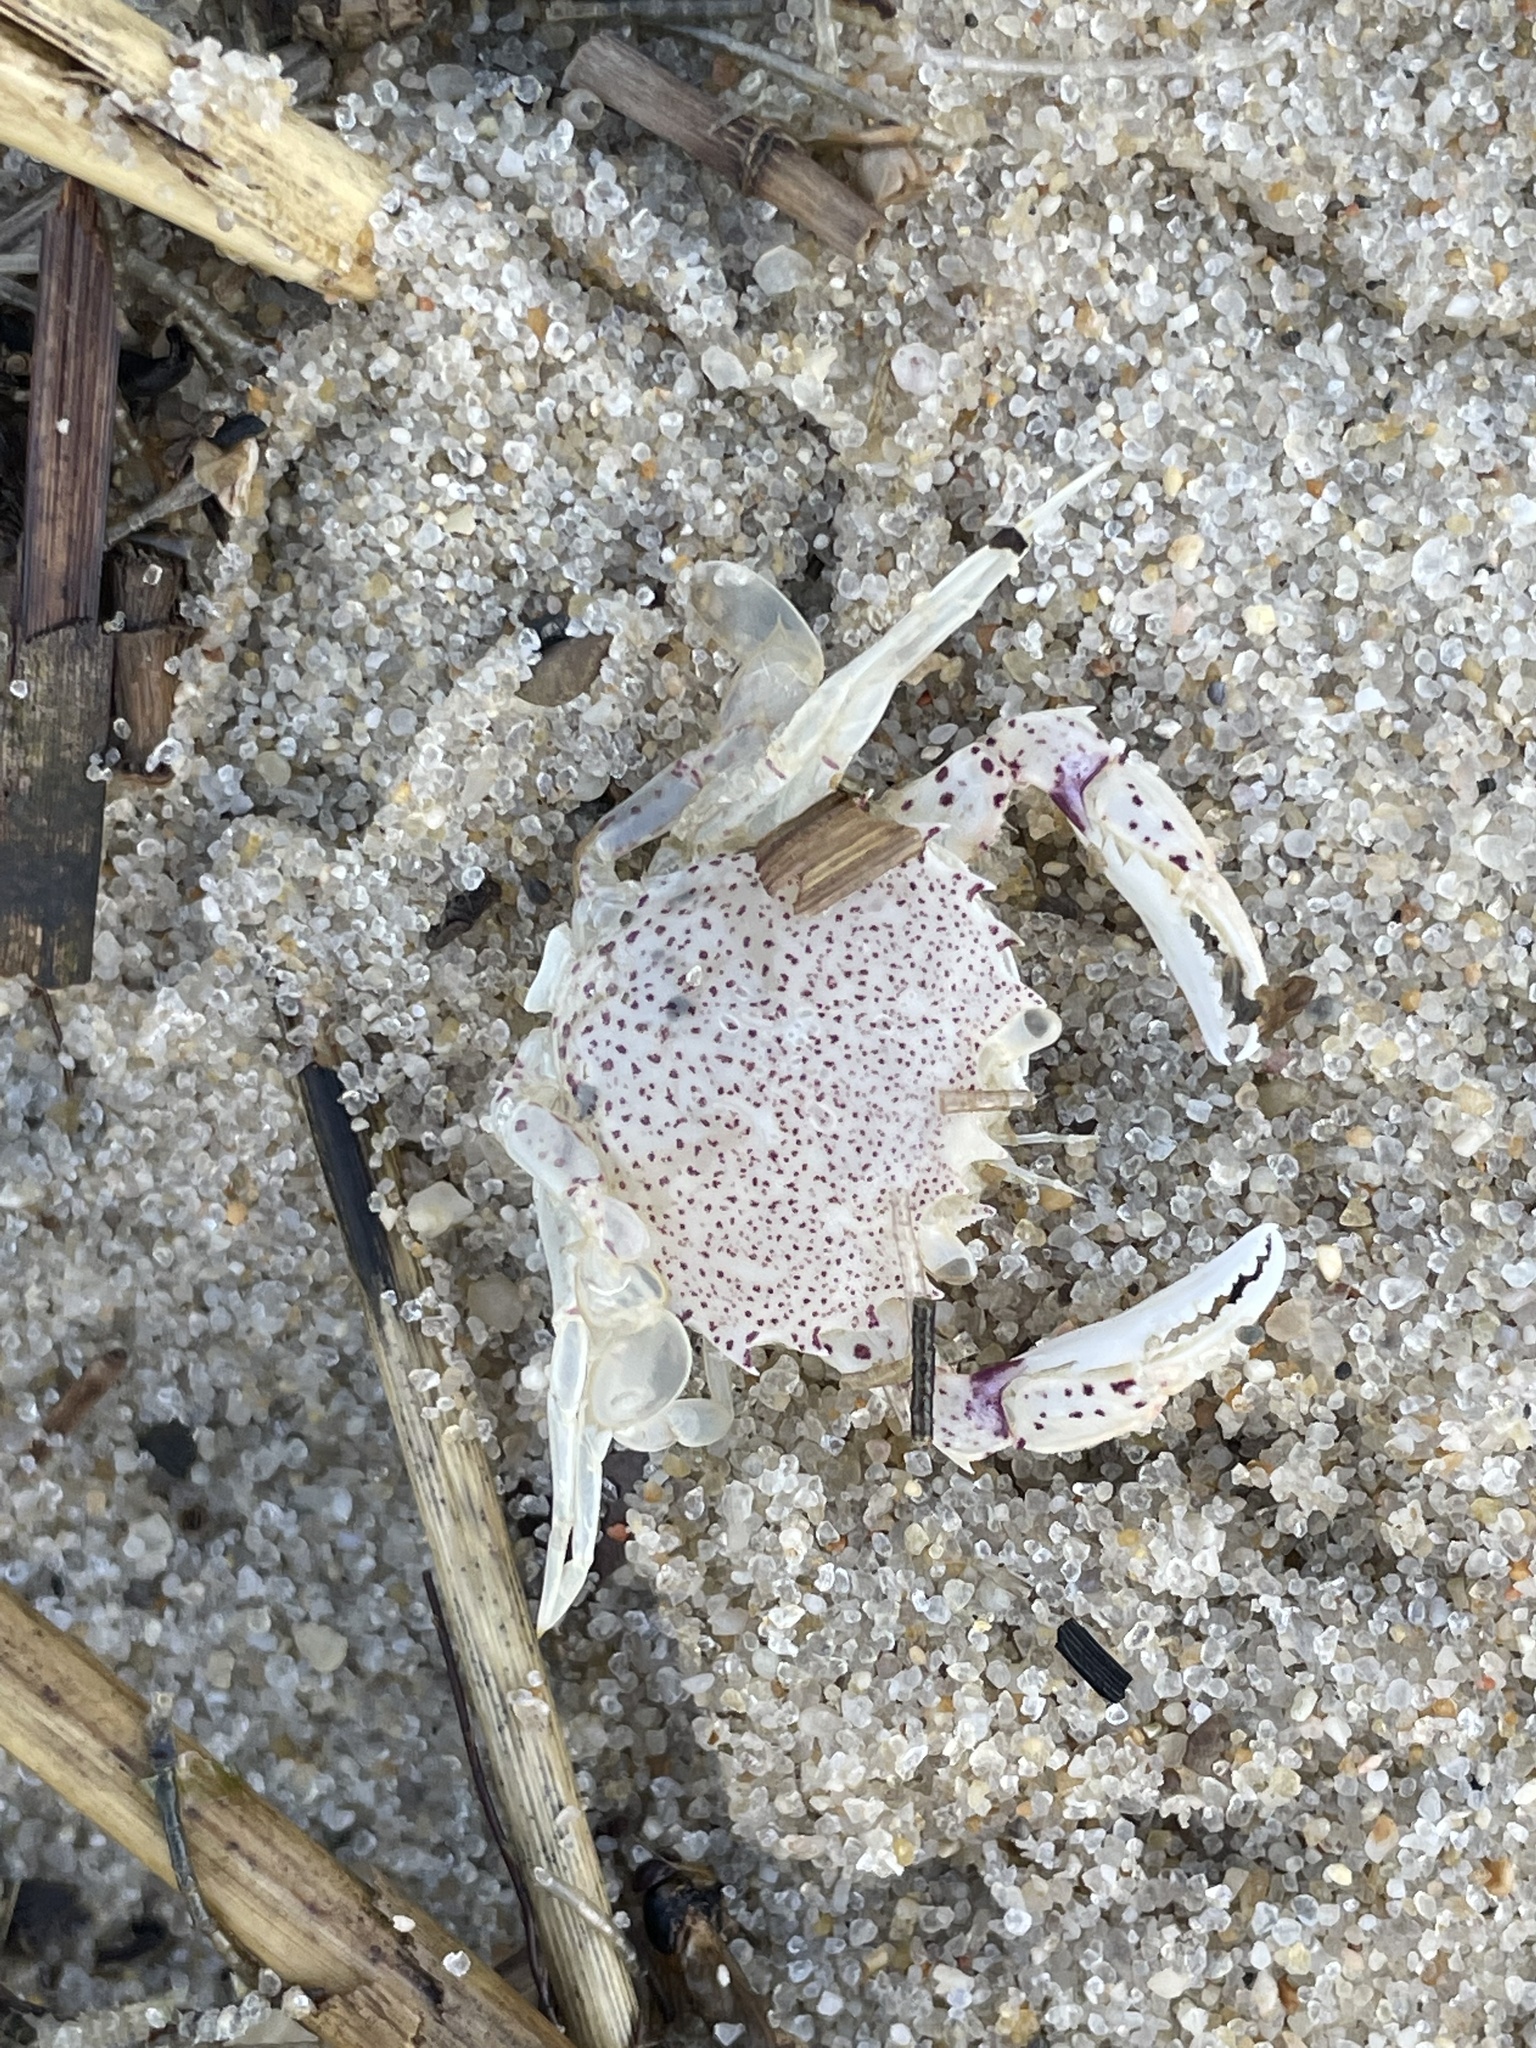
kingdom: Animalia
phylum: Arthropoda
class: Malacostraca
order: Decapoda
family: Ovalipidae
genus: Ovalipes
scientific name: Ovalipes ocellatus
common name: Lady crab
